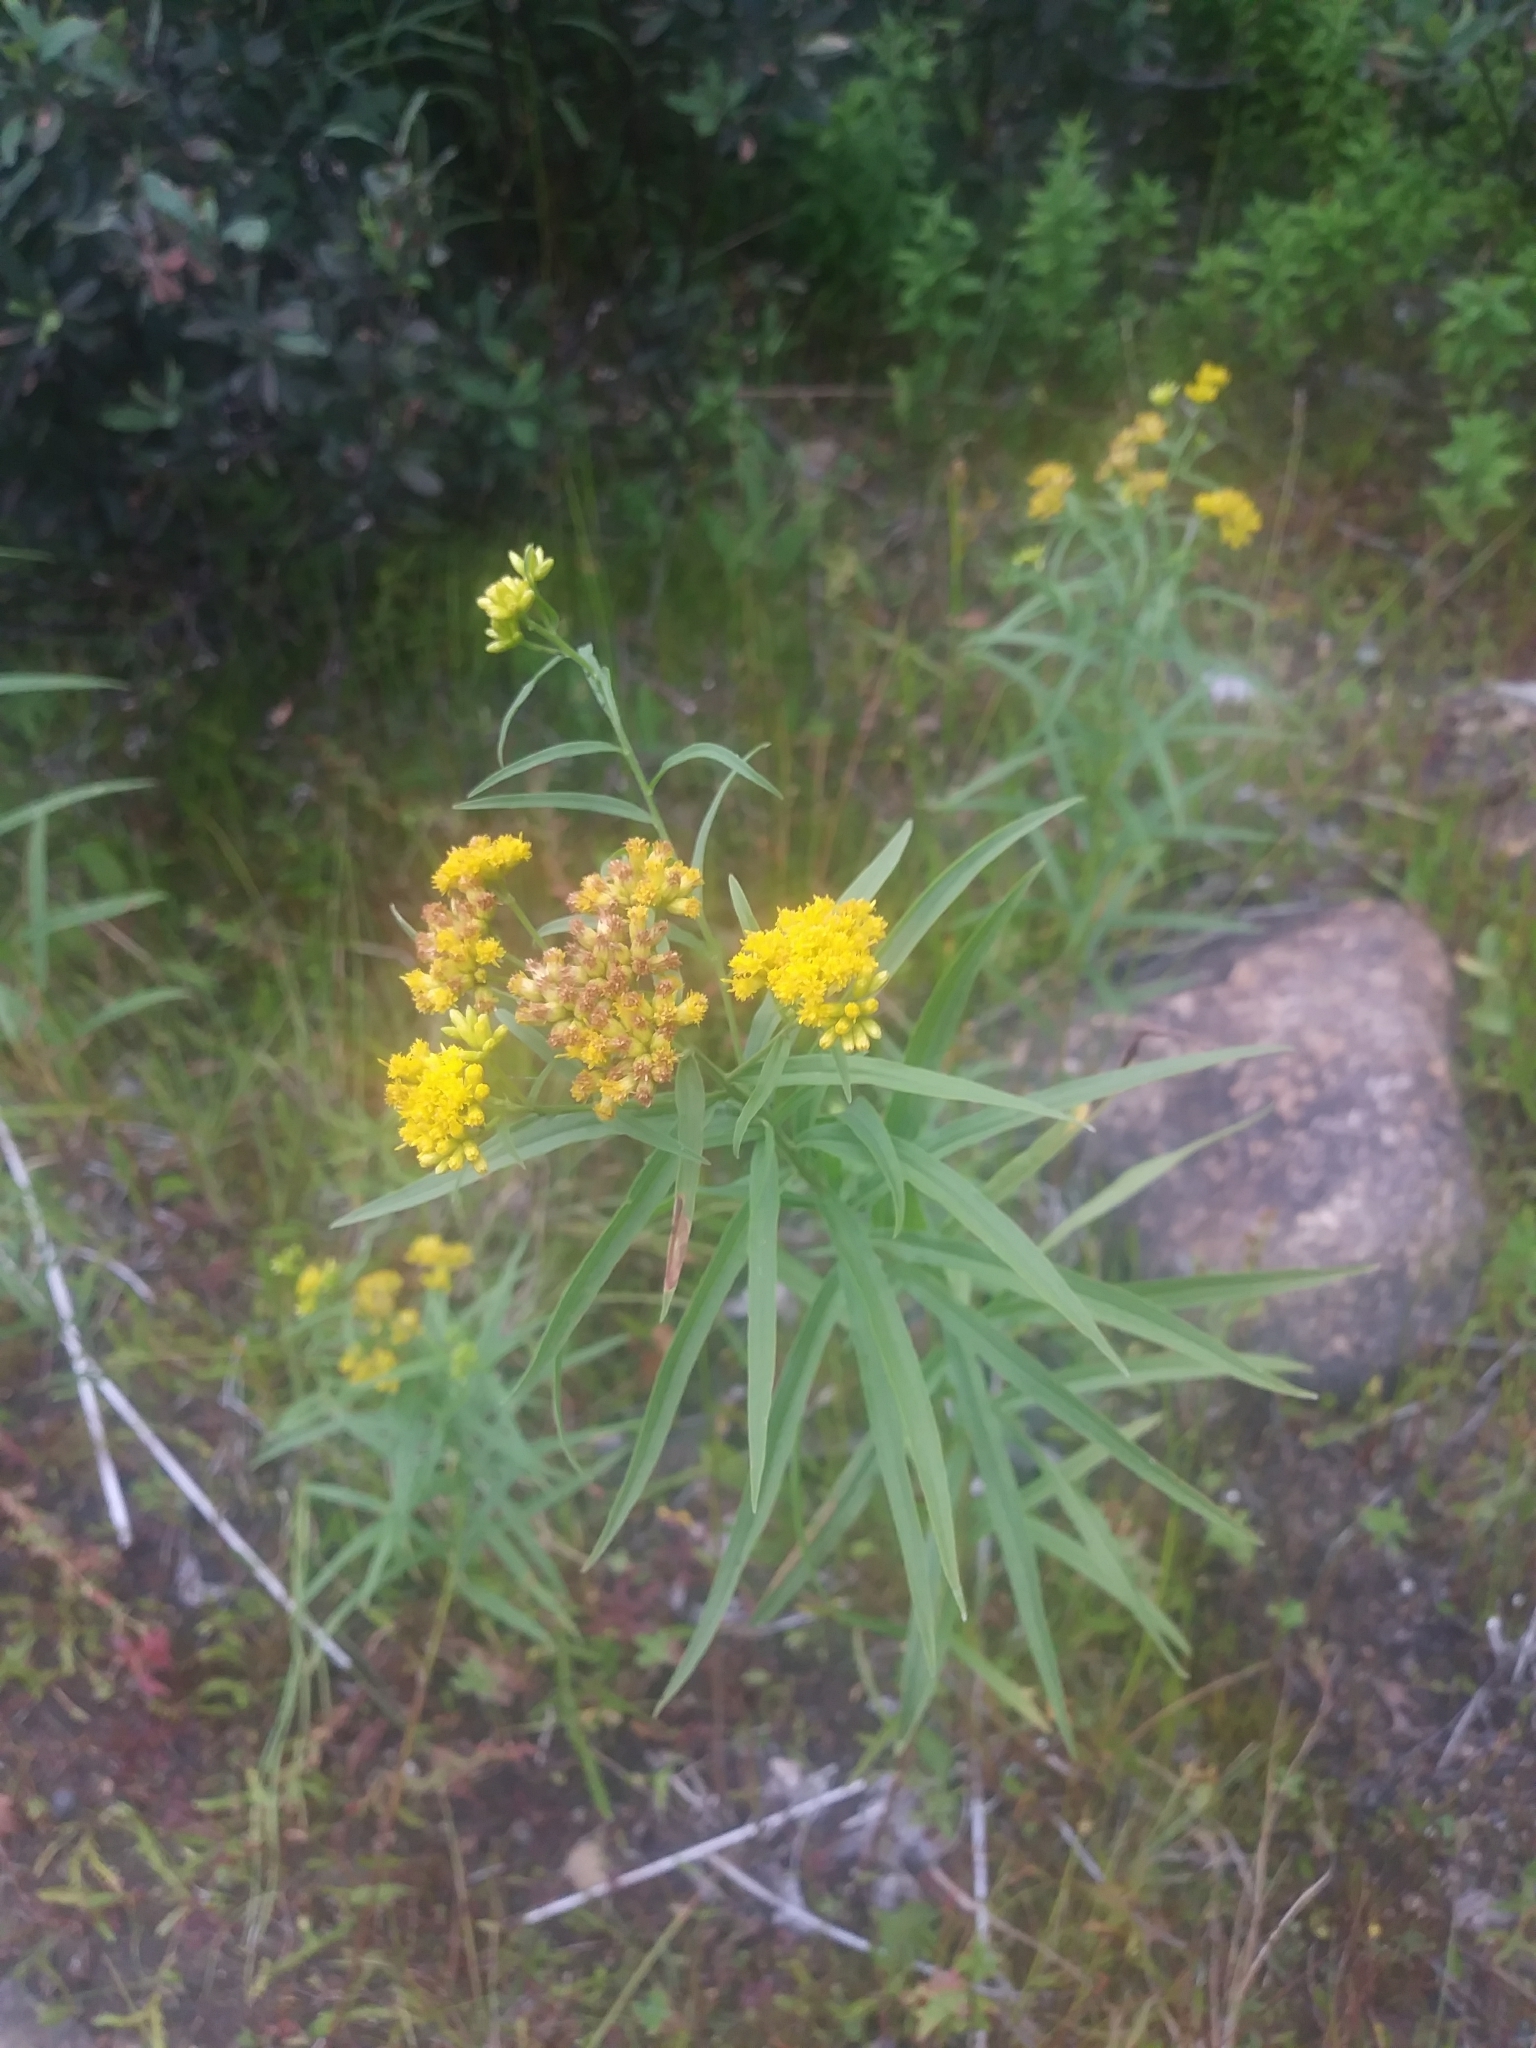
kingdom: Plantae
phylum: Tracheophyta
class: Magnoliopsida
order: Asterales
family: Asteraceae
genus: Euthamia
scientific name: Euthamia graminifolia
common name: Common goldentop
